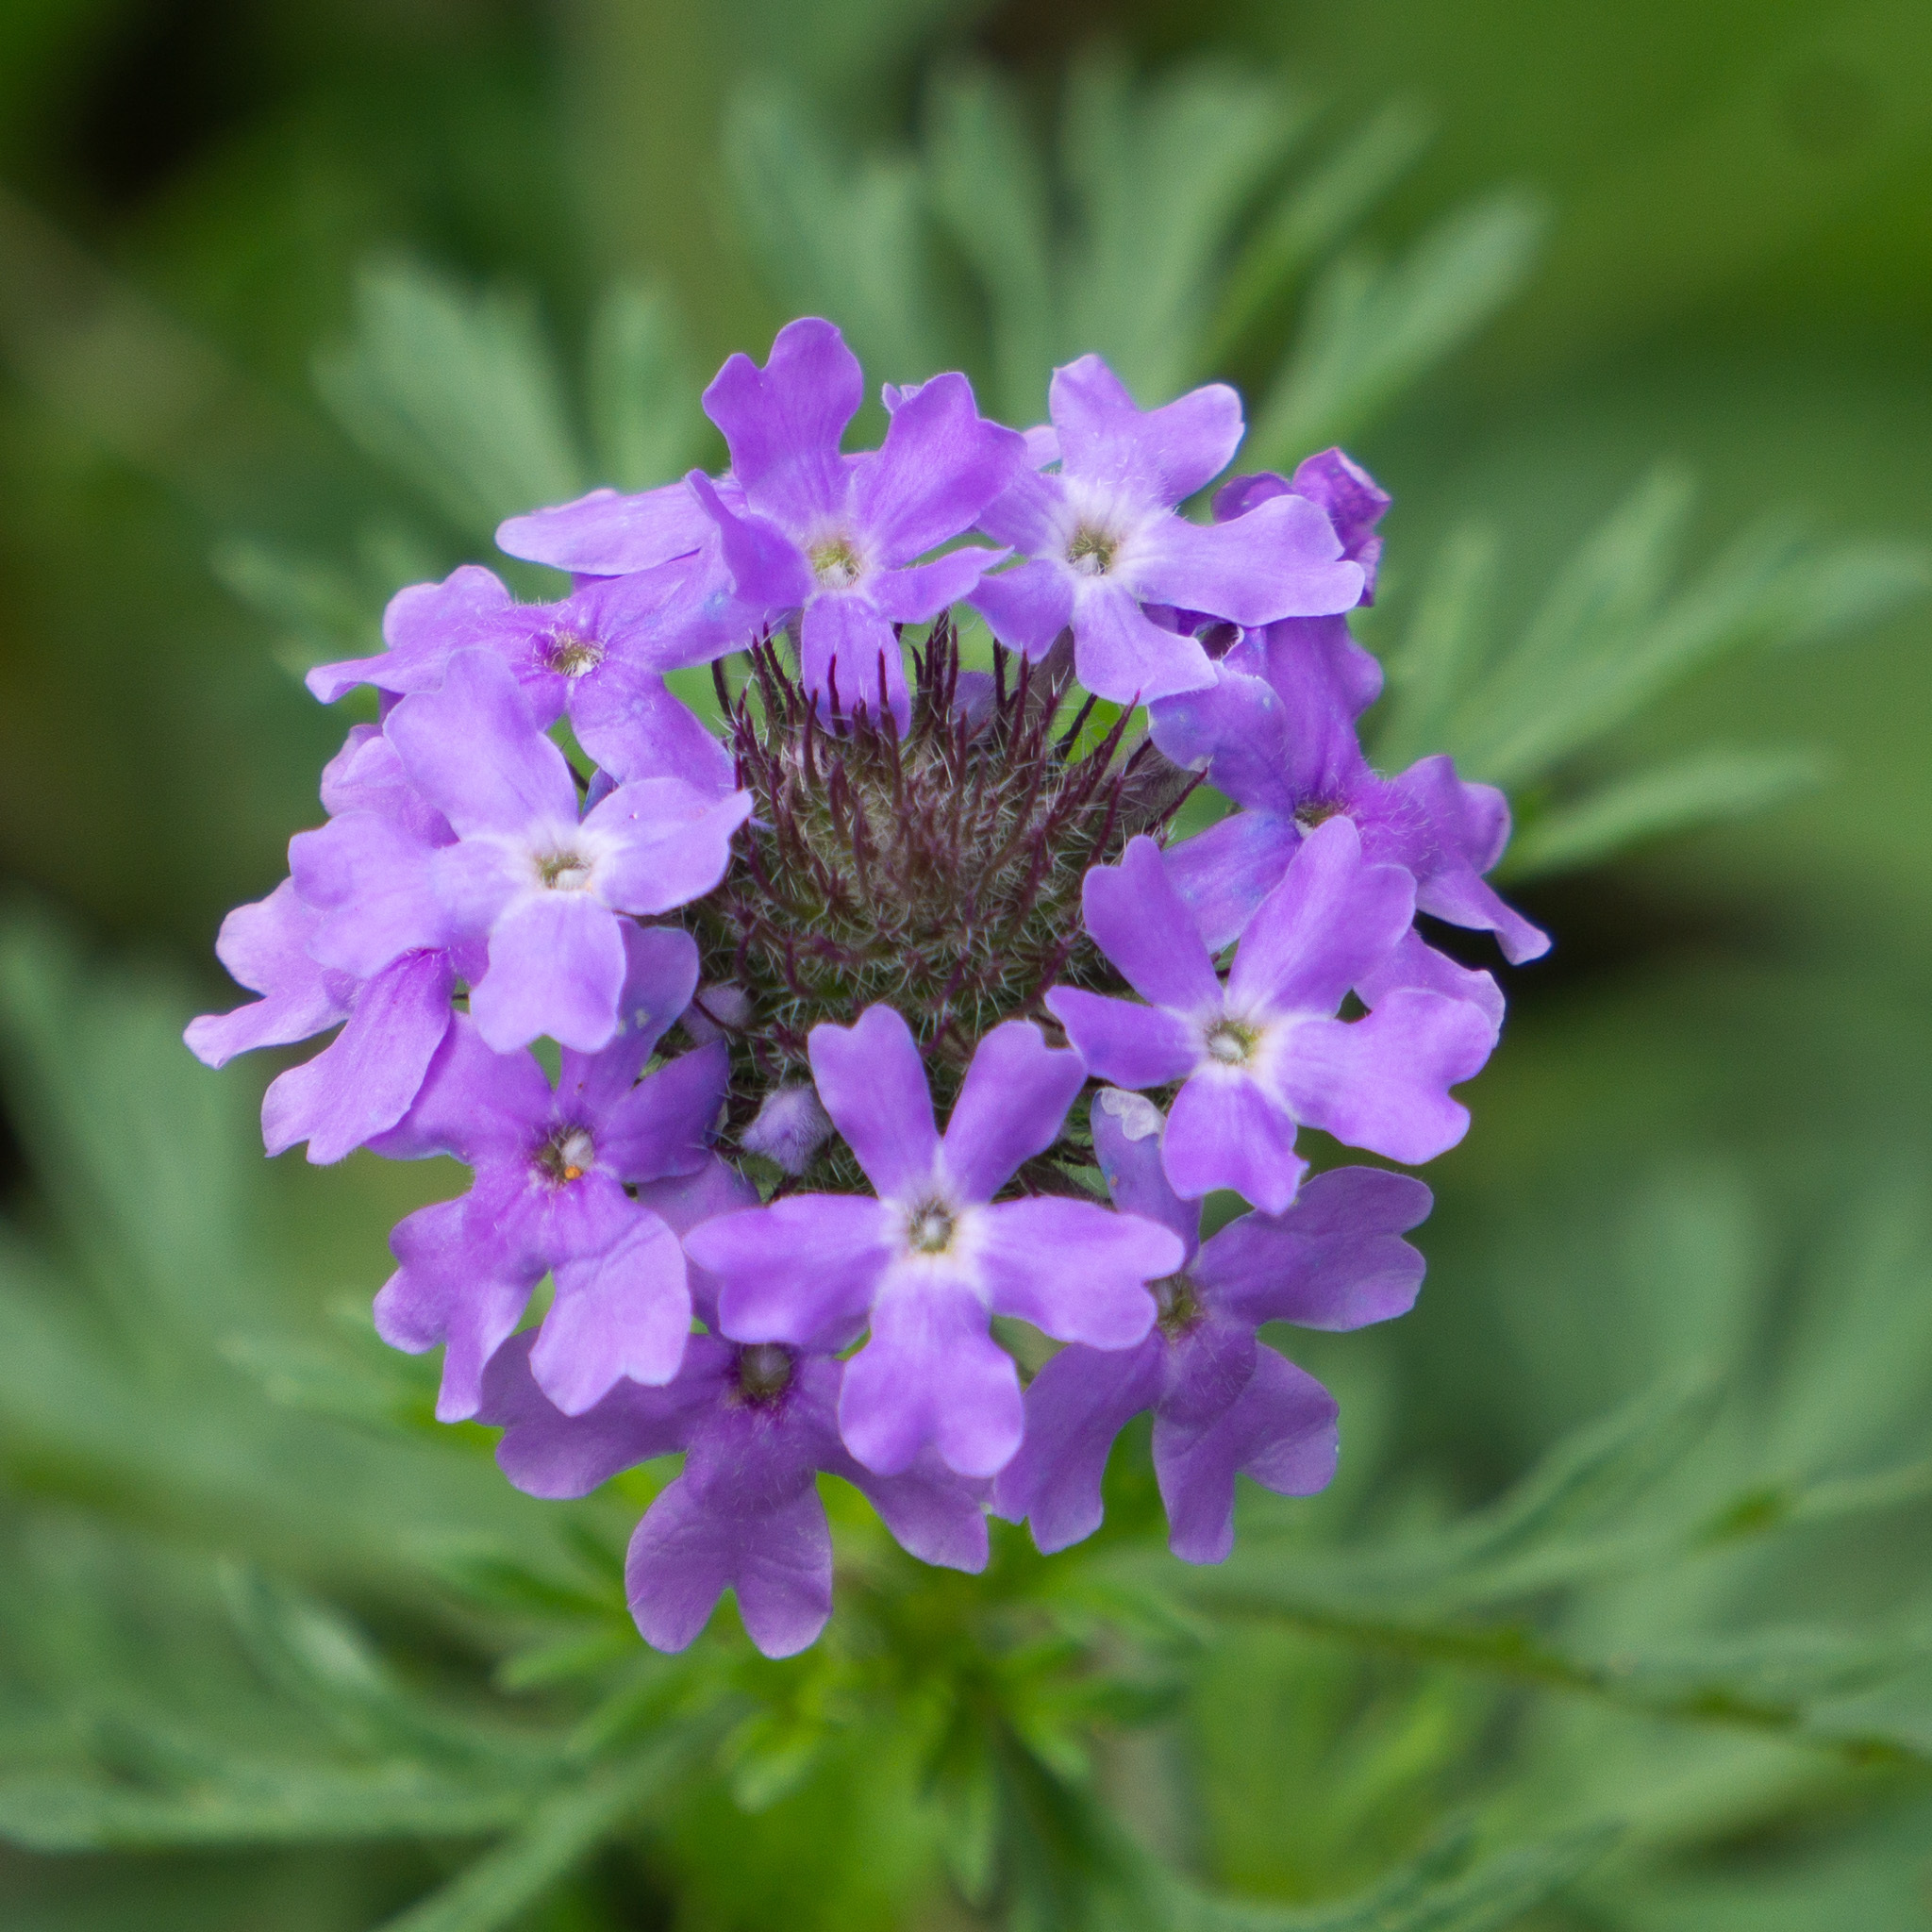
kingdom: Plantae
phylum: Tracheophyta
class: Magnoliopsida
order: Lamiales
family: Verbenaceae
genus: Verbena
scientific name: Verbena bipinnatifida
